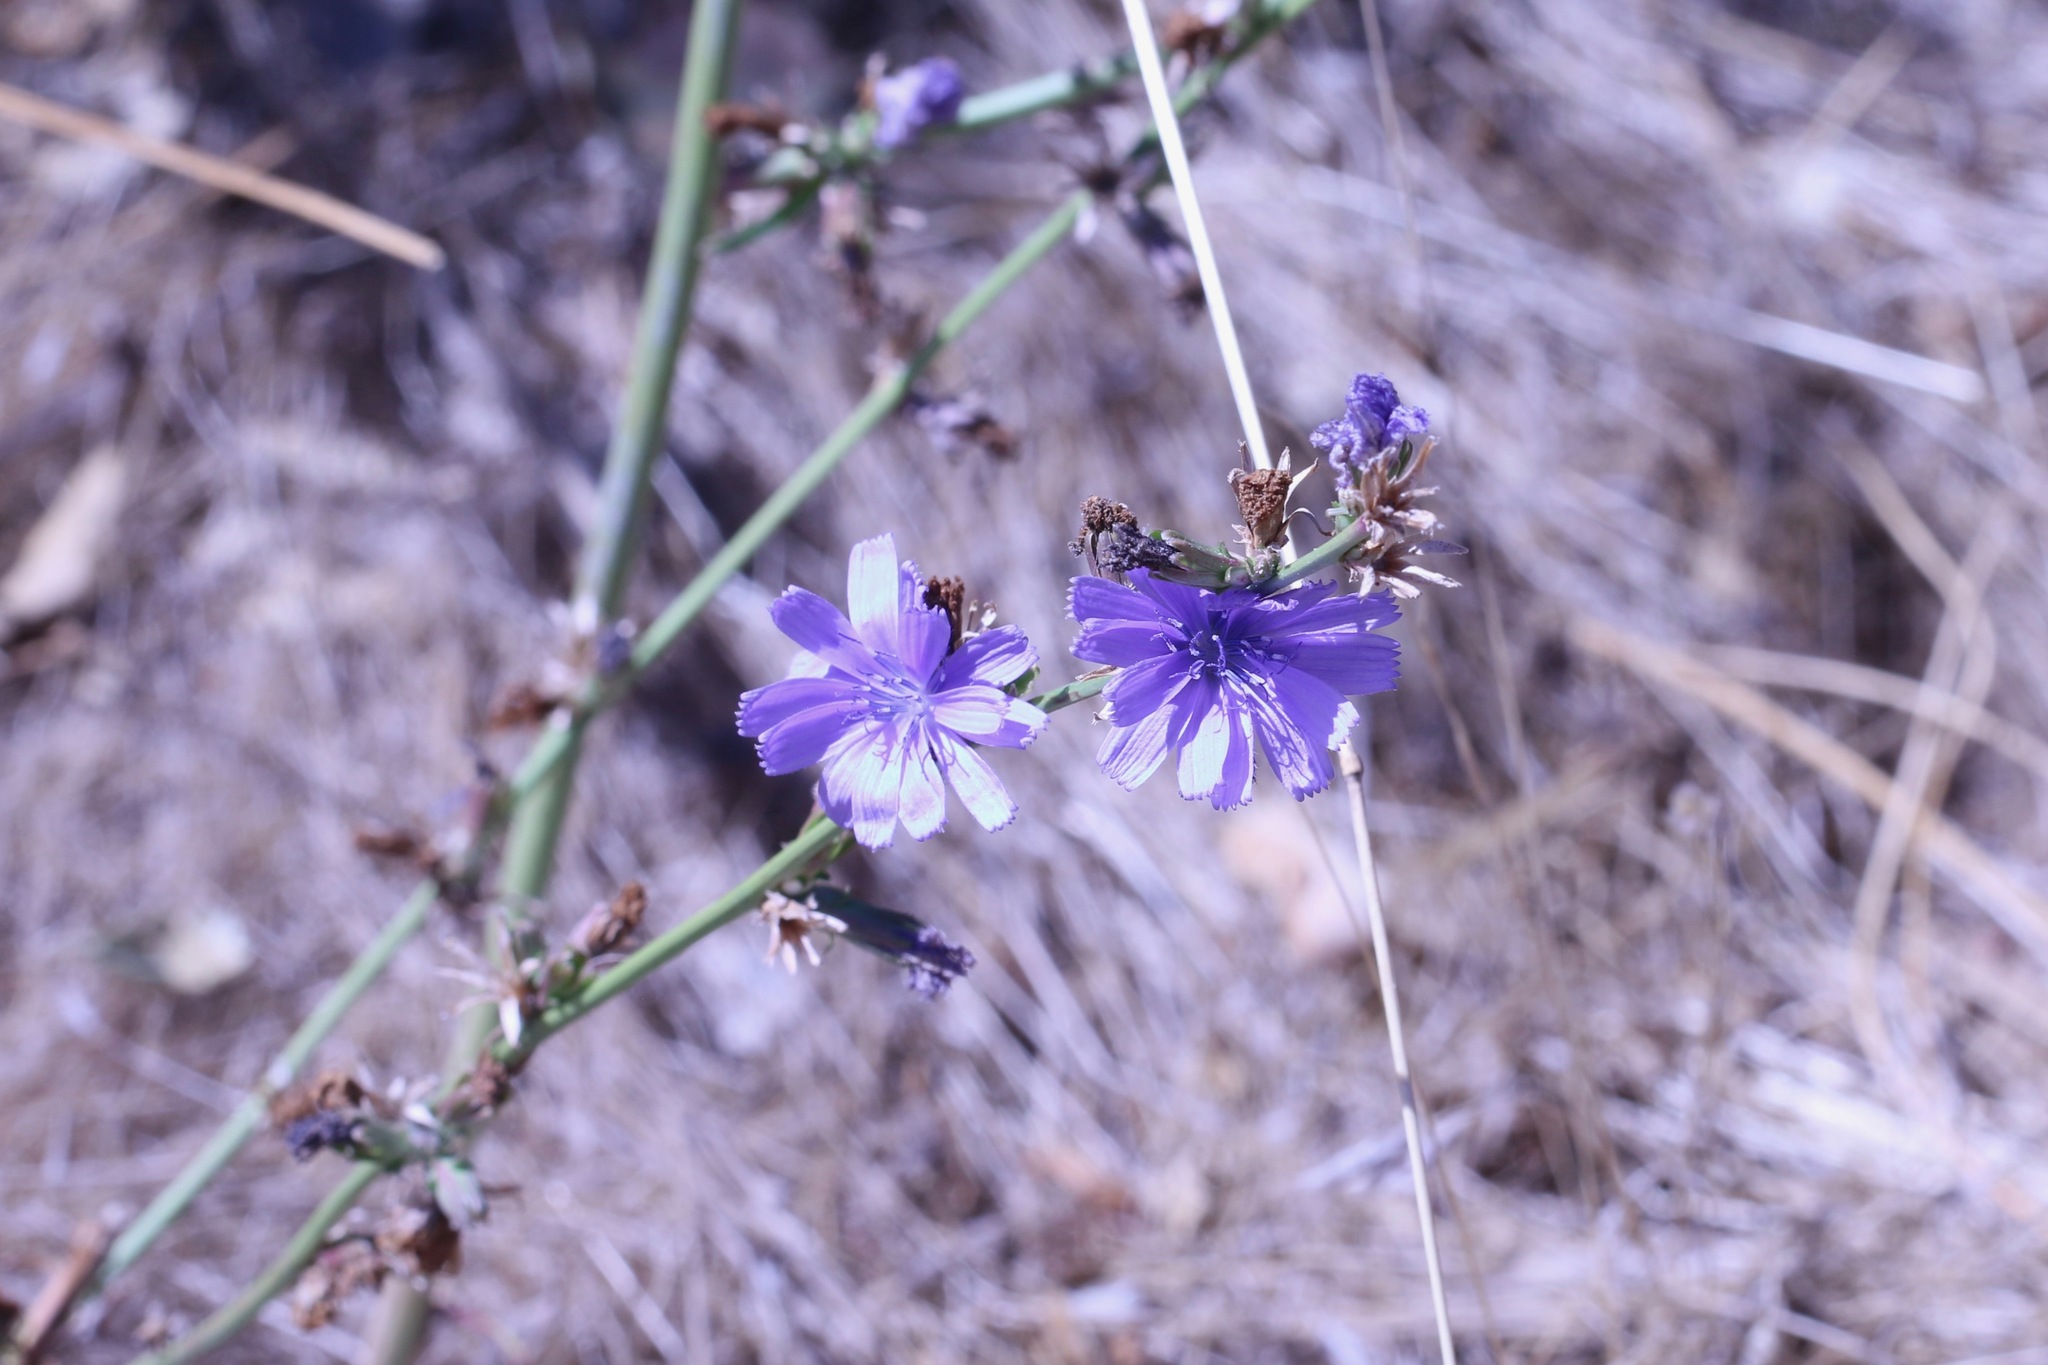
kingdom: Plantae
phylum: Tracheophyta
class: Magnoliopsida
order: Asterales
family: Asteraceae
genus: Cichorium
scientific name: Cichorium intybus
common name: Chicory
